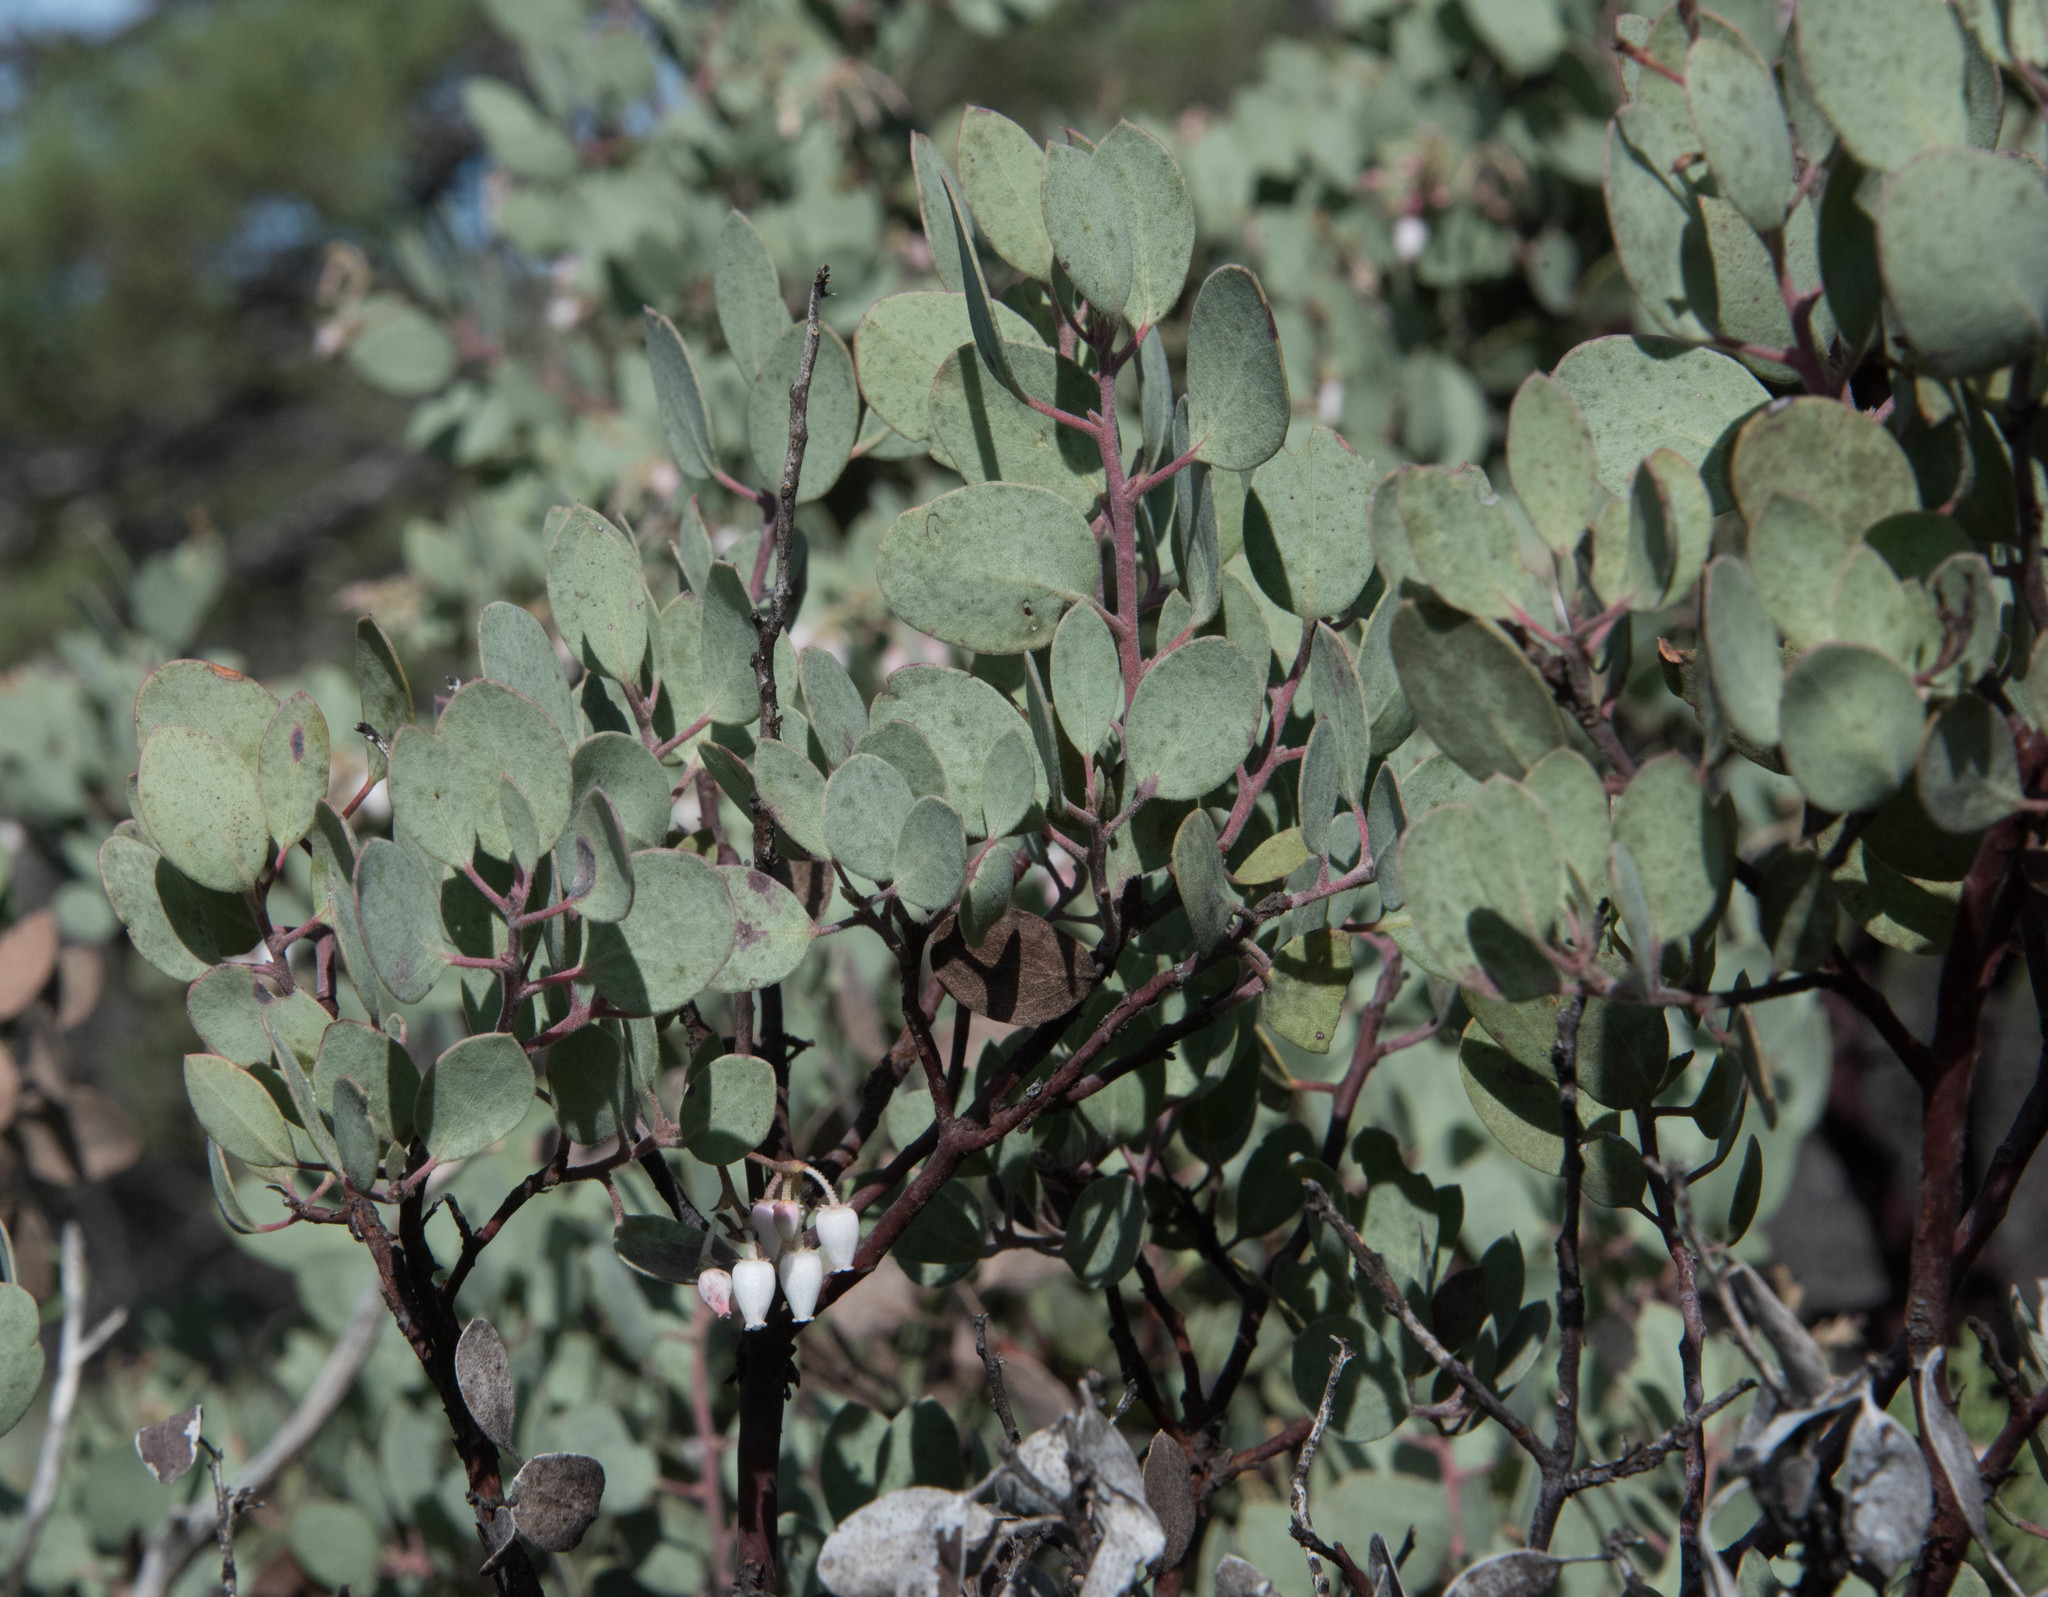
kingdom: Plantae
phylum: Tracheophyta
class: Magnoliopsida
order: Ericales
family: Ericaceae
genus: Arctostaphylos
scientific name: Arctostaphylos viscida
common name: White-leaf manzanita
